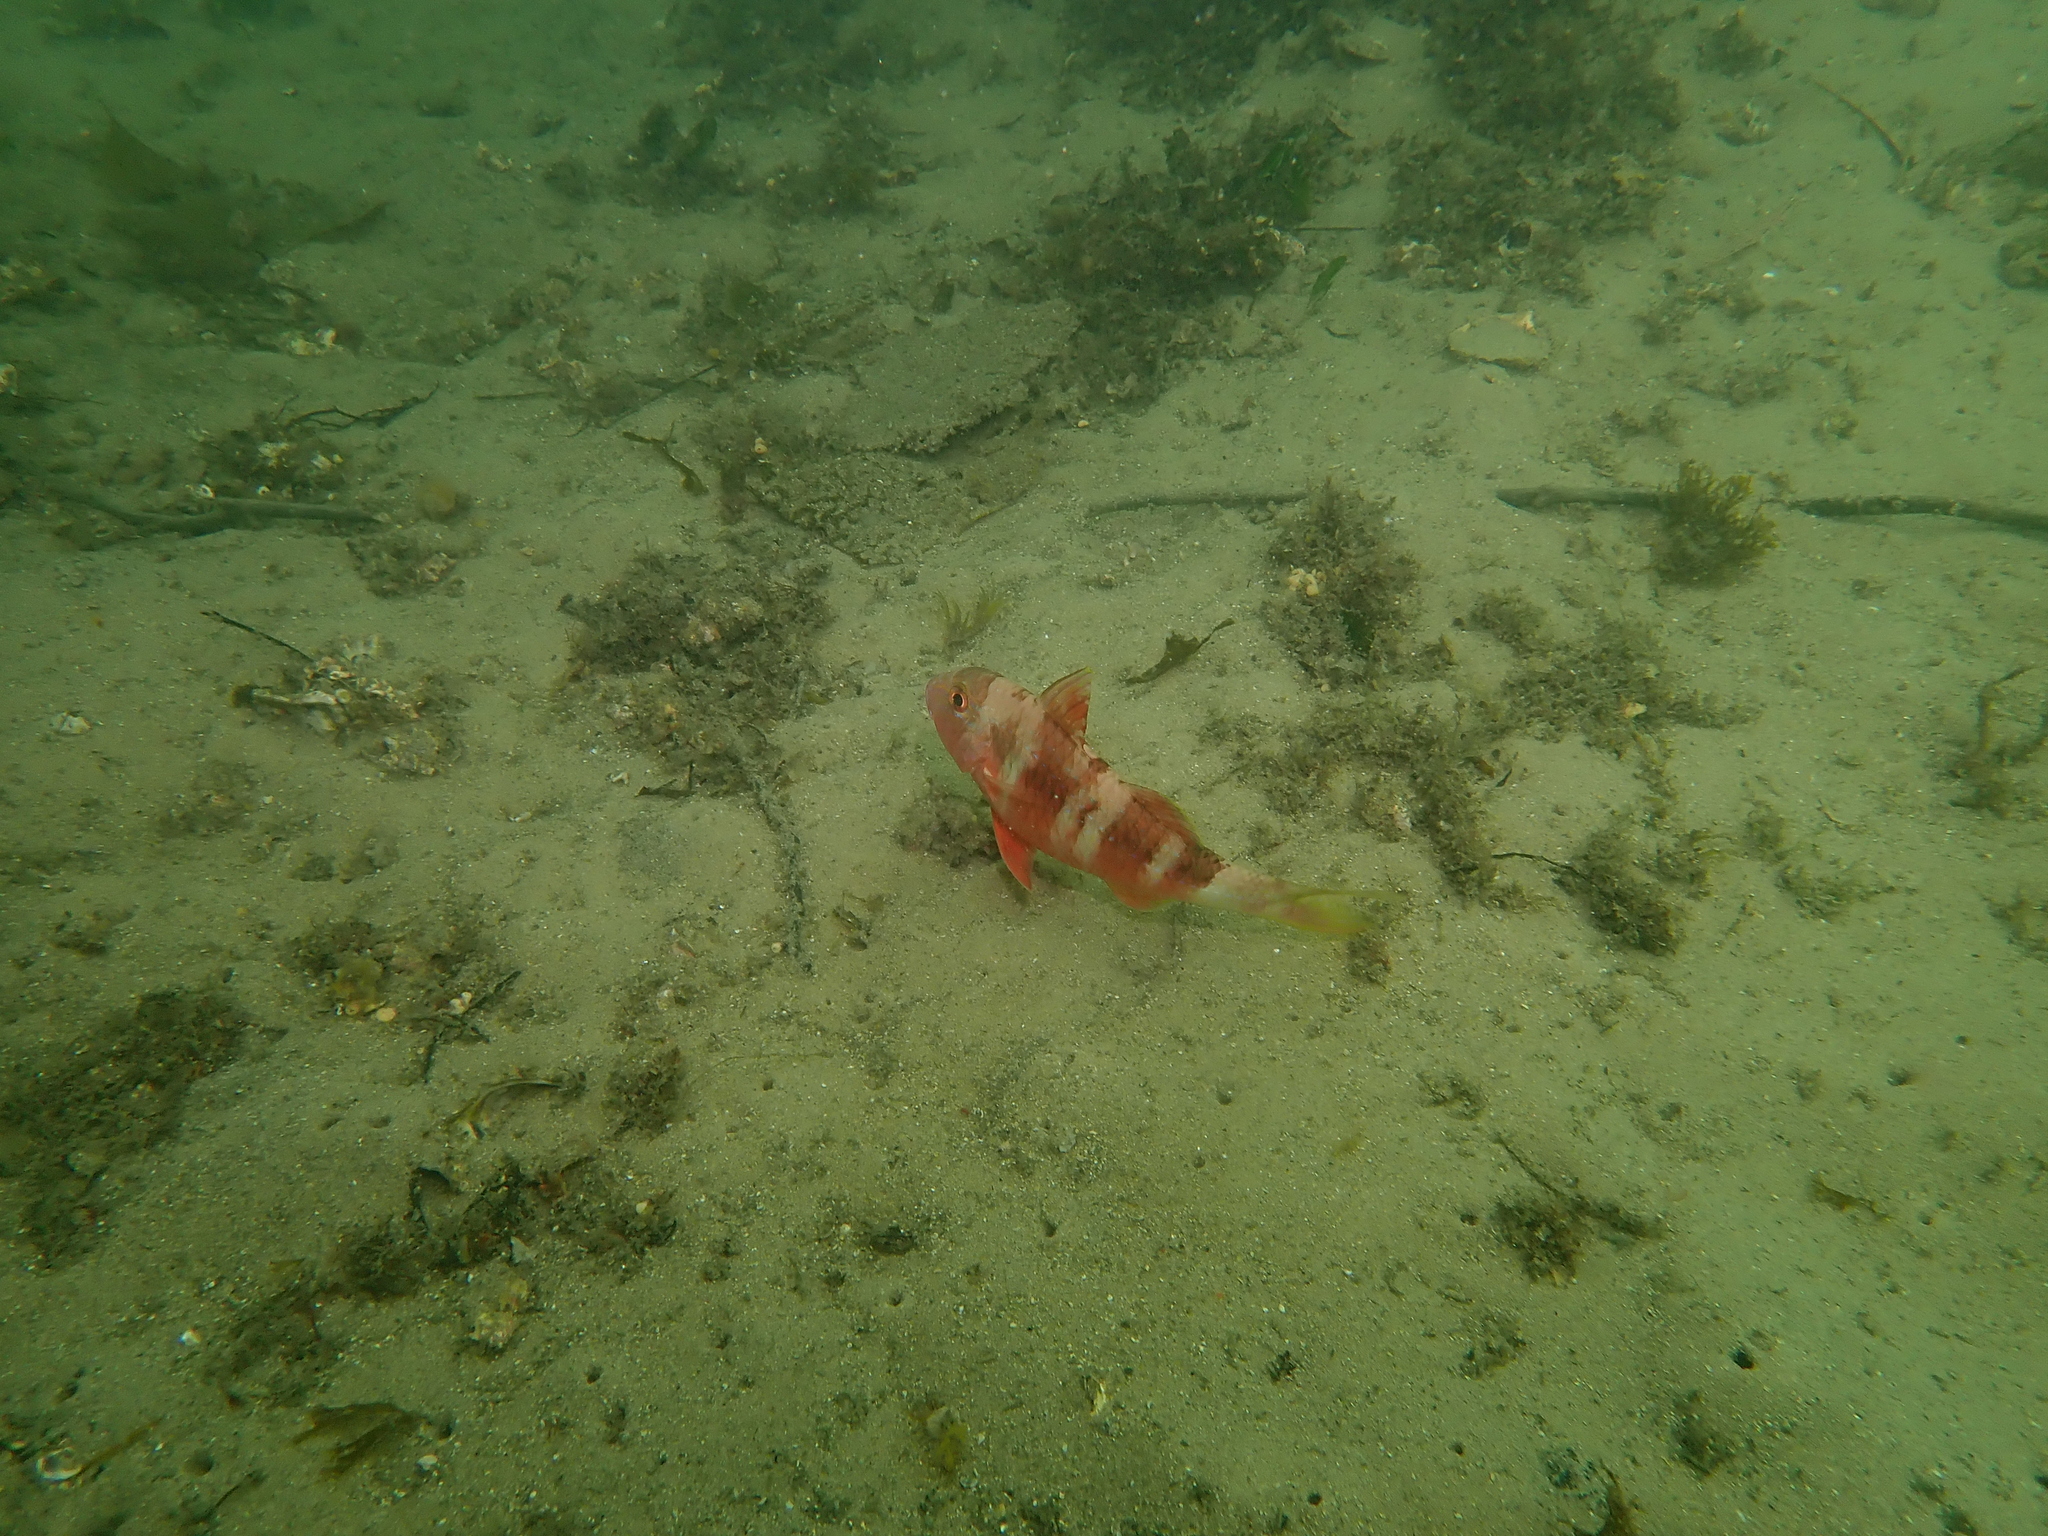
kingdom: Animalia
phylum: Chordata
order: Perciformes
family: Mullidae
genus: Upeneichthys
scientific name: Upeneichthys lineatus
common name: Red mullet
